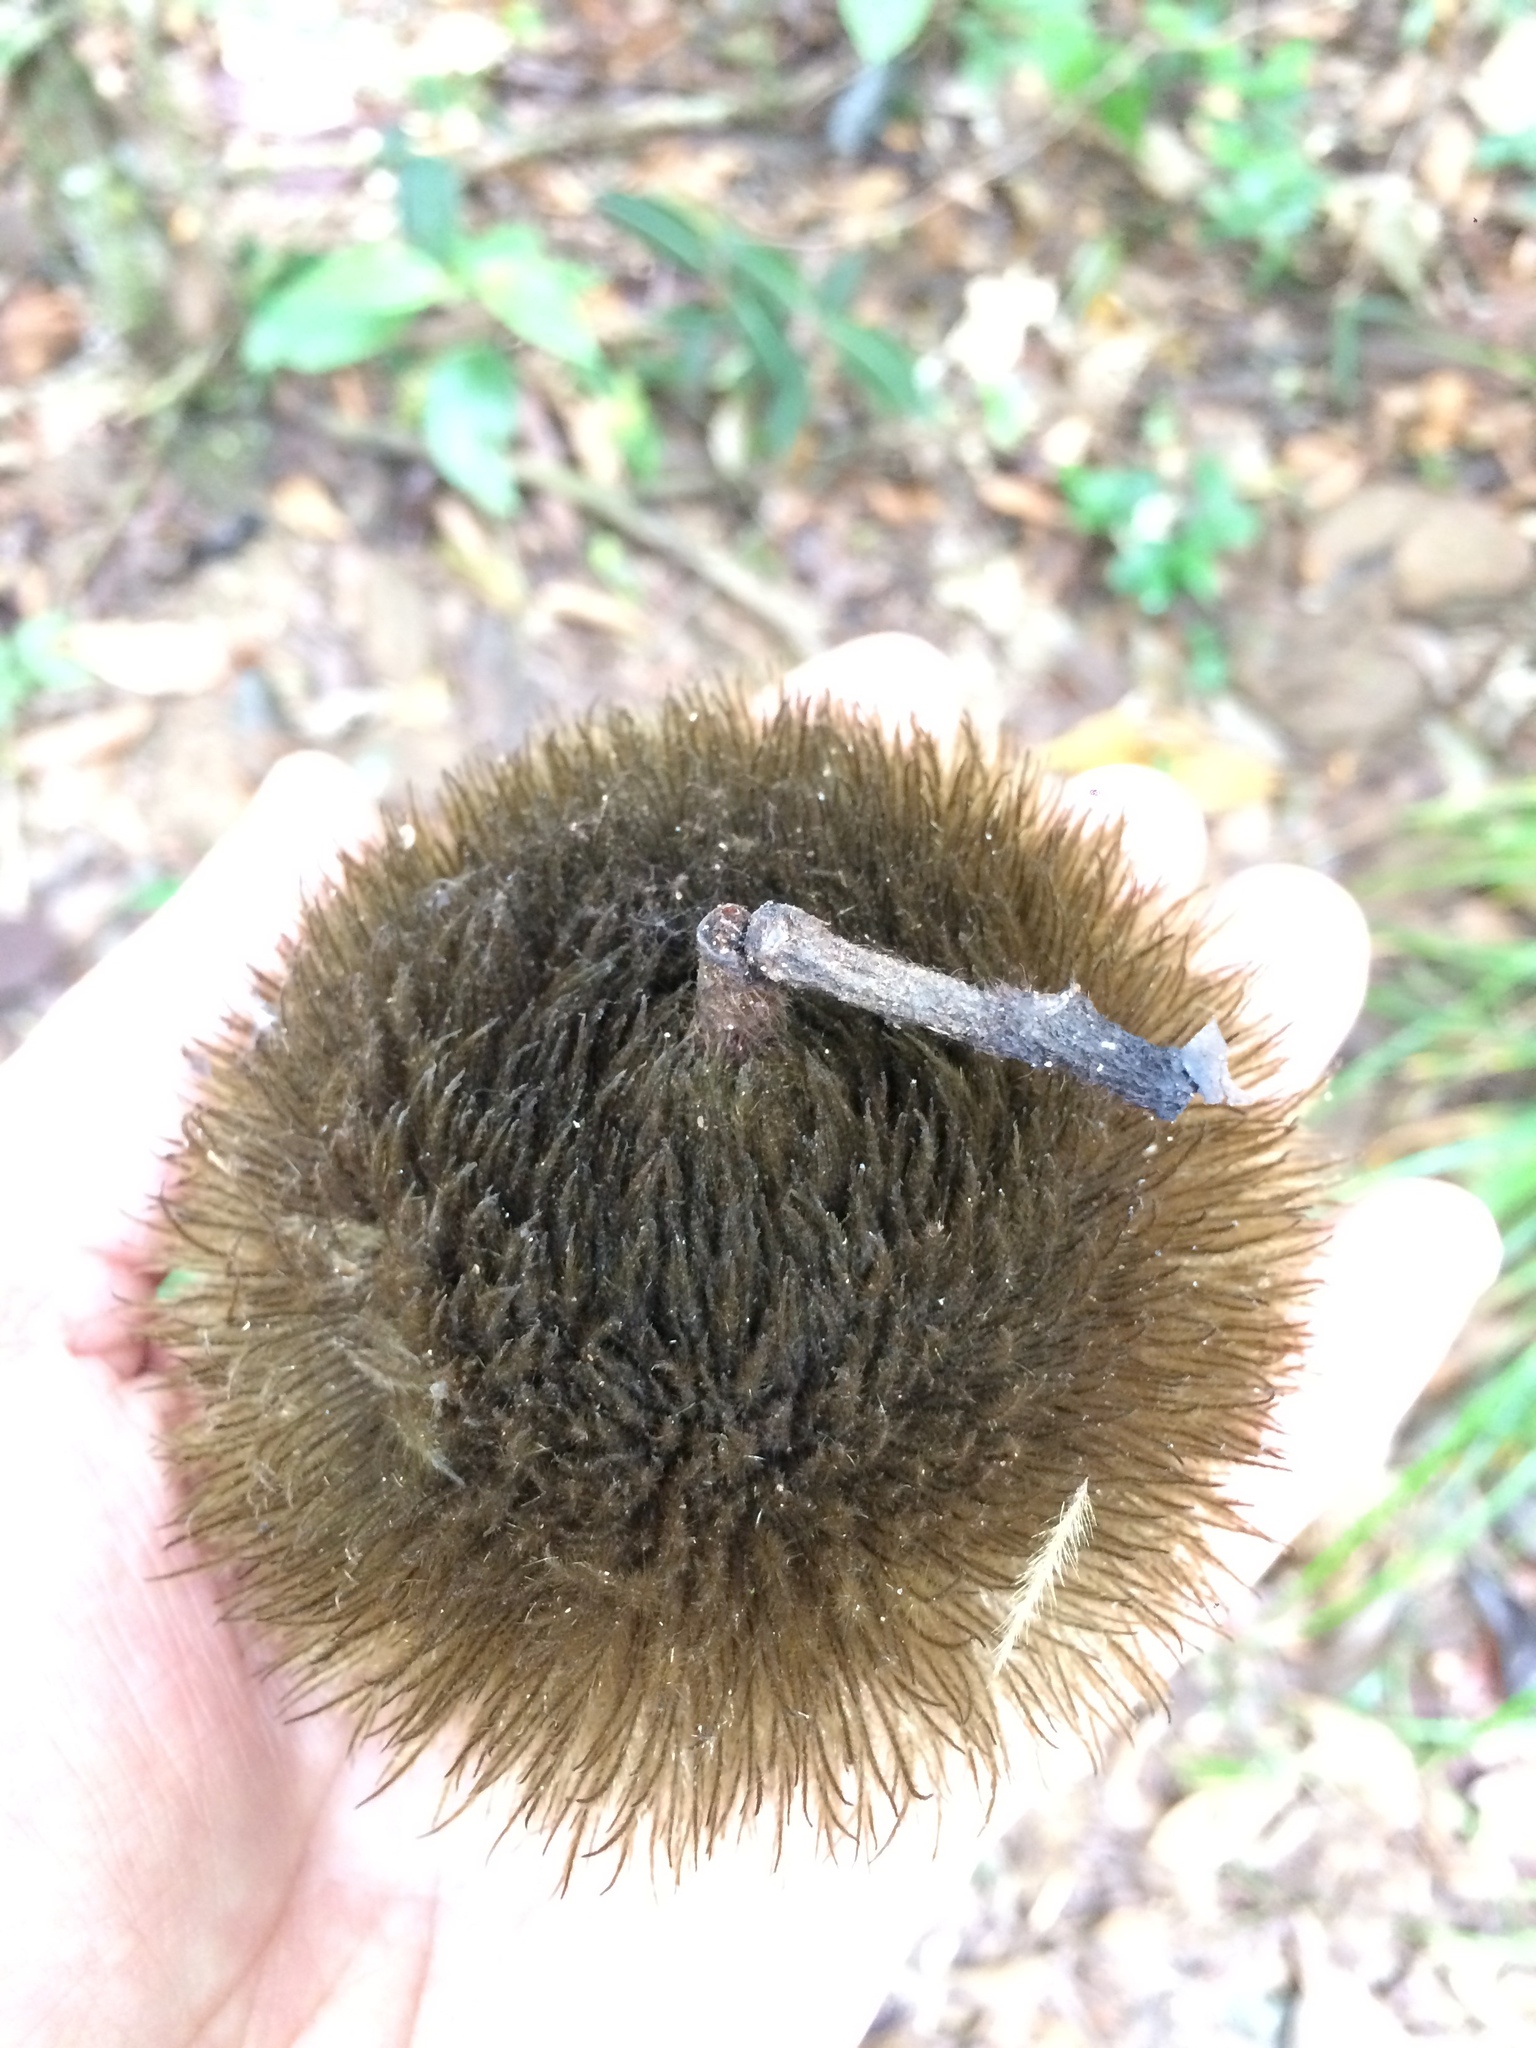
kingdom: Plantae
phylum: Tracheophyta
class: Magnoliopsida
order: Malvales
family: Malvaceae
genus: Apeiba
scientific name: Apeiba albiflora
